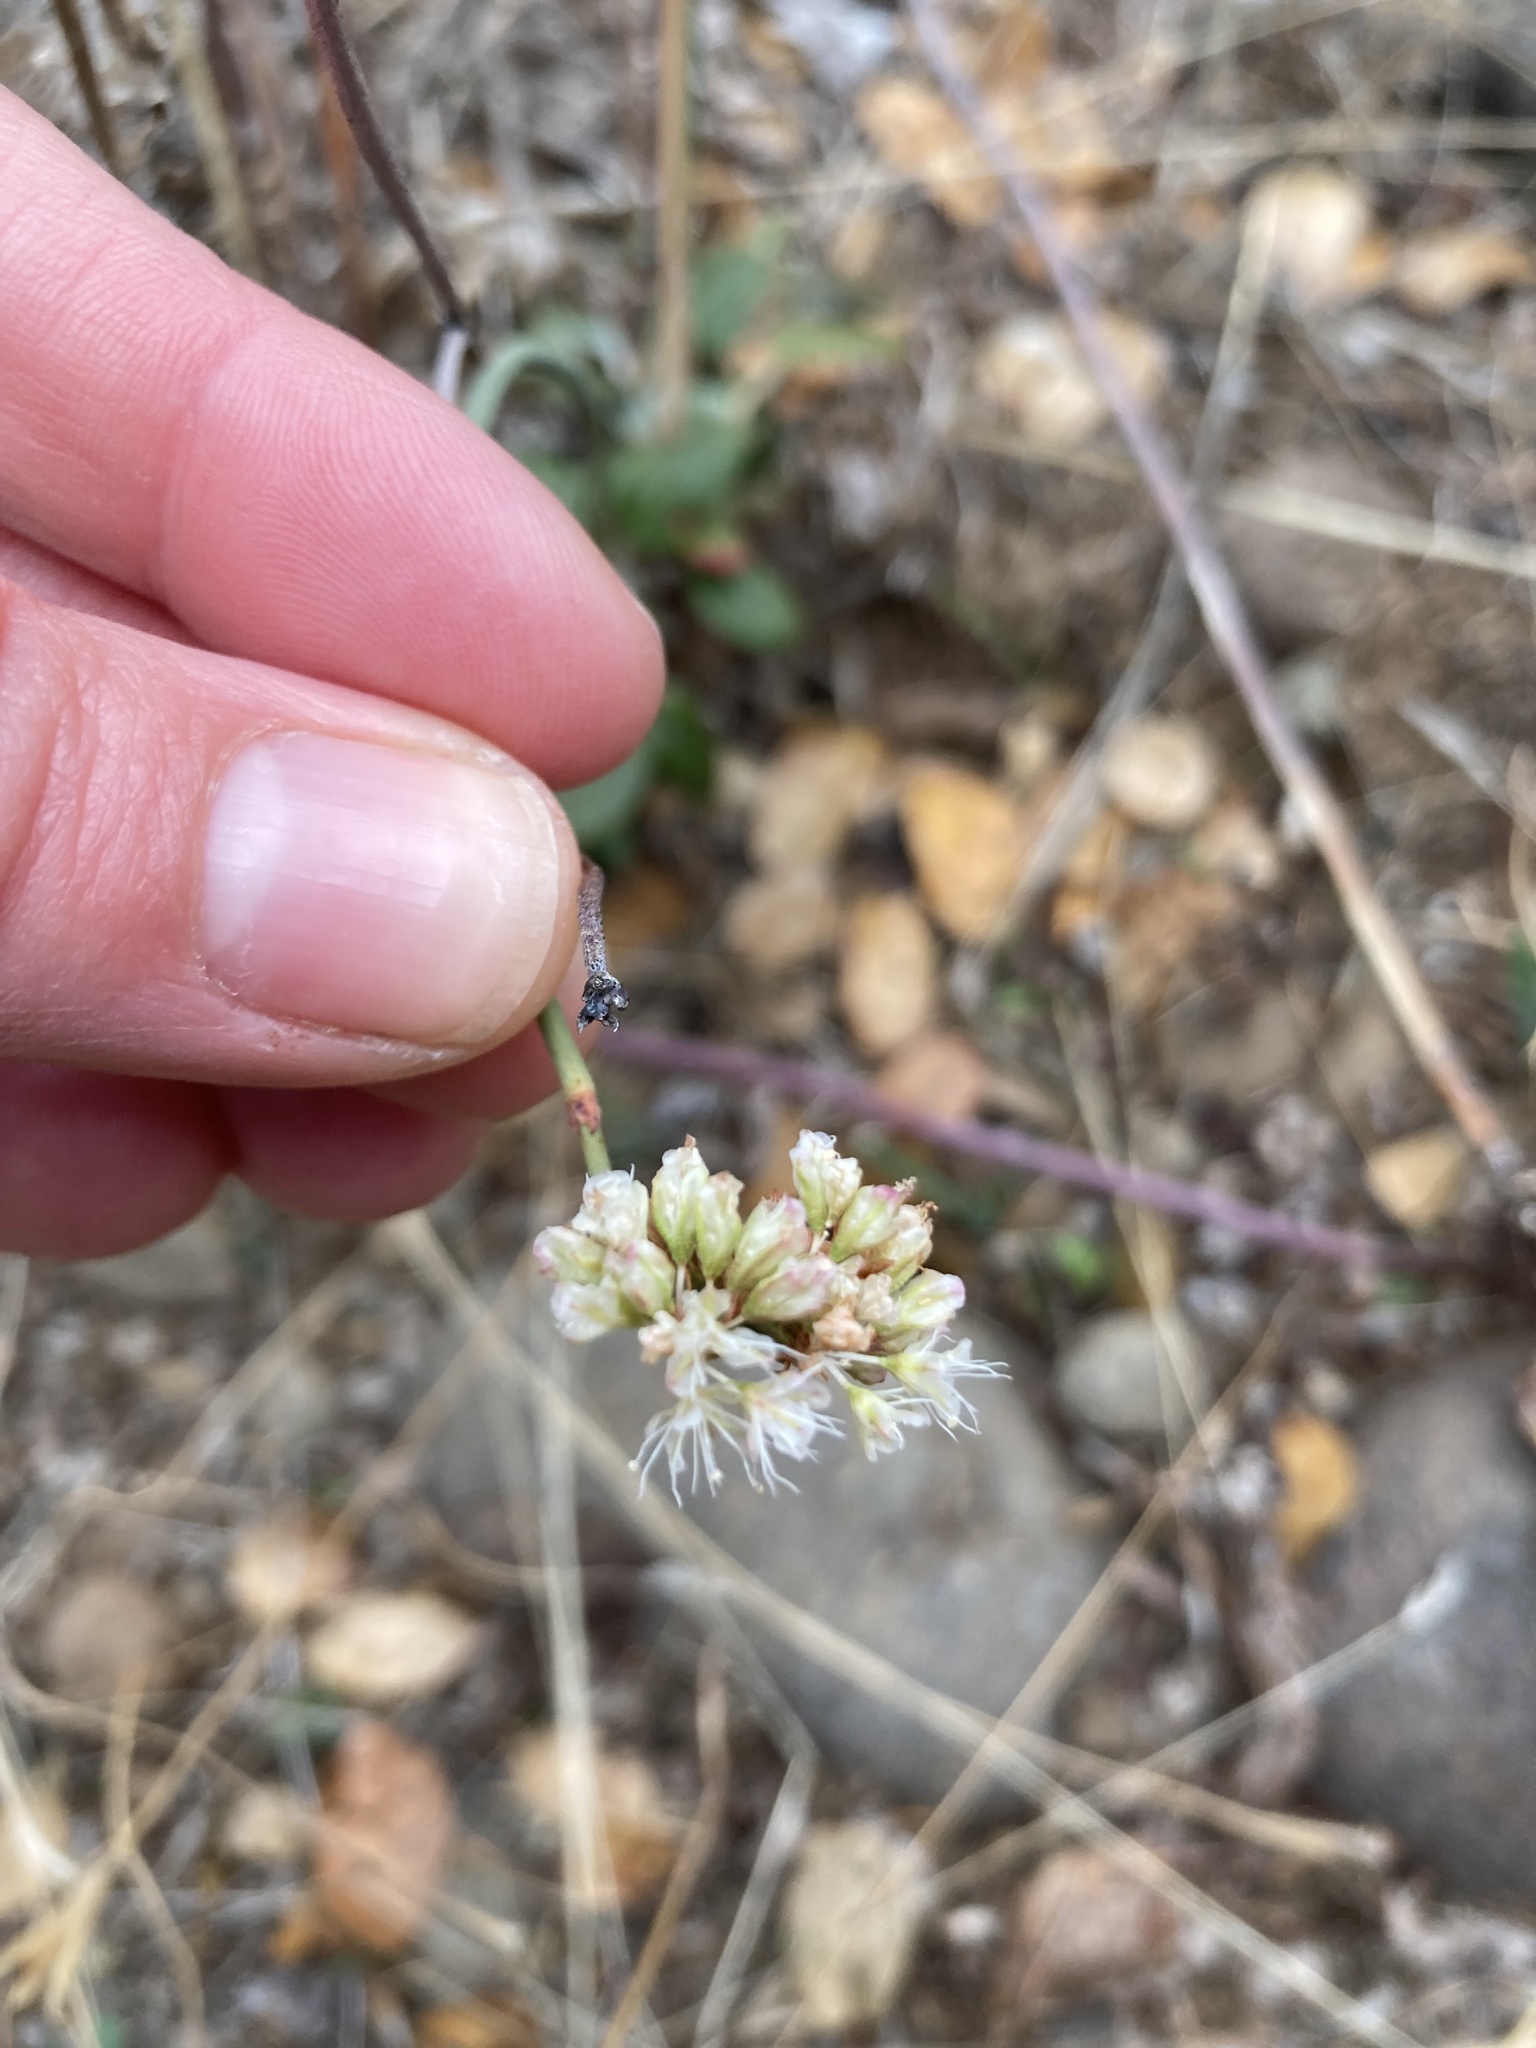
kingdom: Plantae
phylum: Tracheophyta
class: Magnoliopsida
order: Caryophyllales
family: Polygonaceae
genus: Eriogonum
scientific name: Eriogonum nudum
